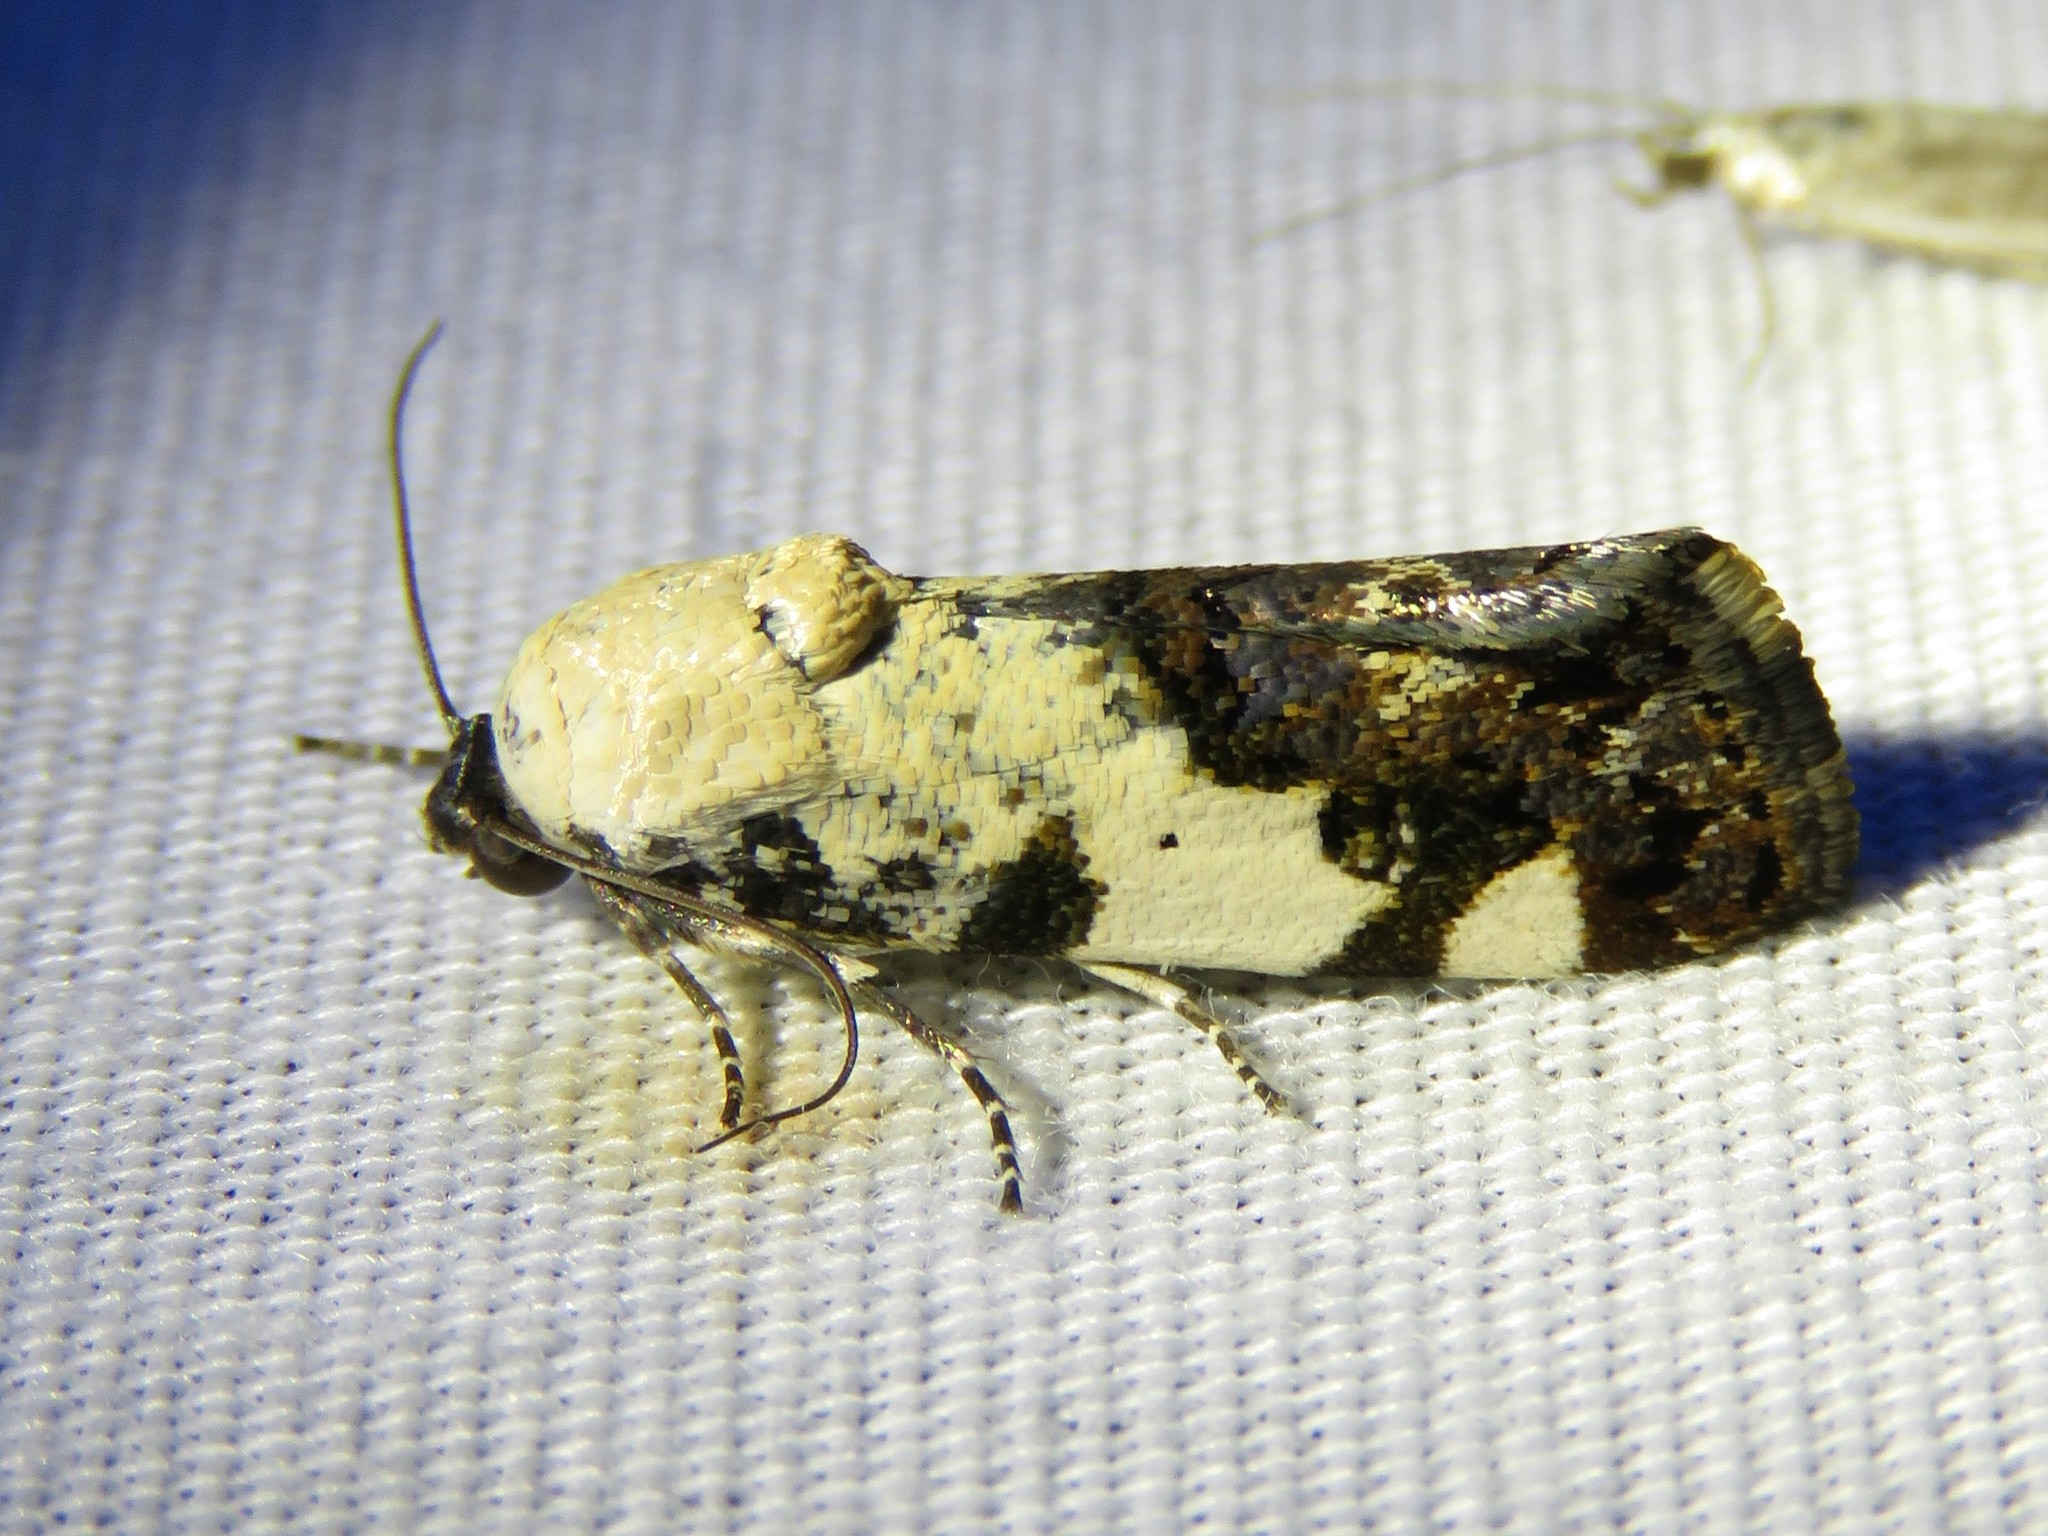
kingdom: Animalia
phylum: Arthropoda
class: Insecta
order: Lepidoptera
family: Noctuidae
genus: Acontia
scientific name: Acontia aprica
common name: Nun
